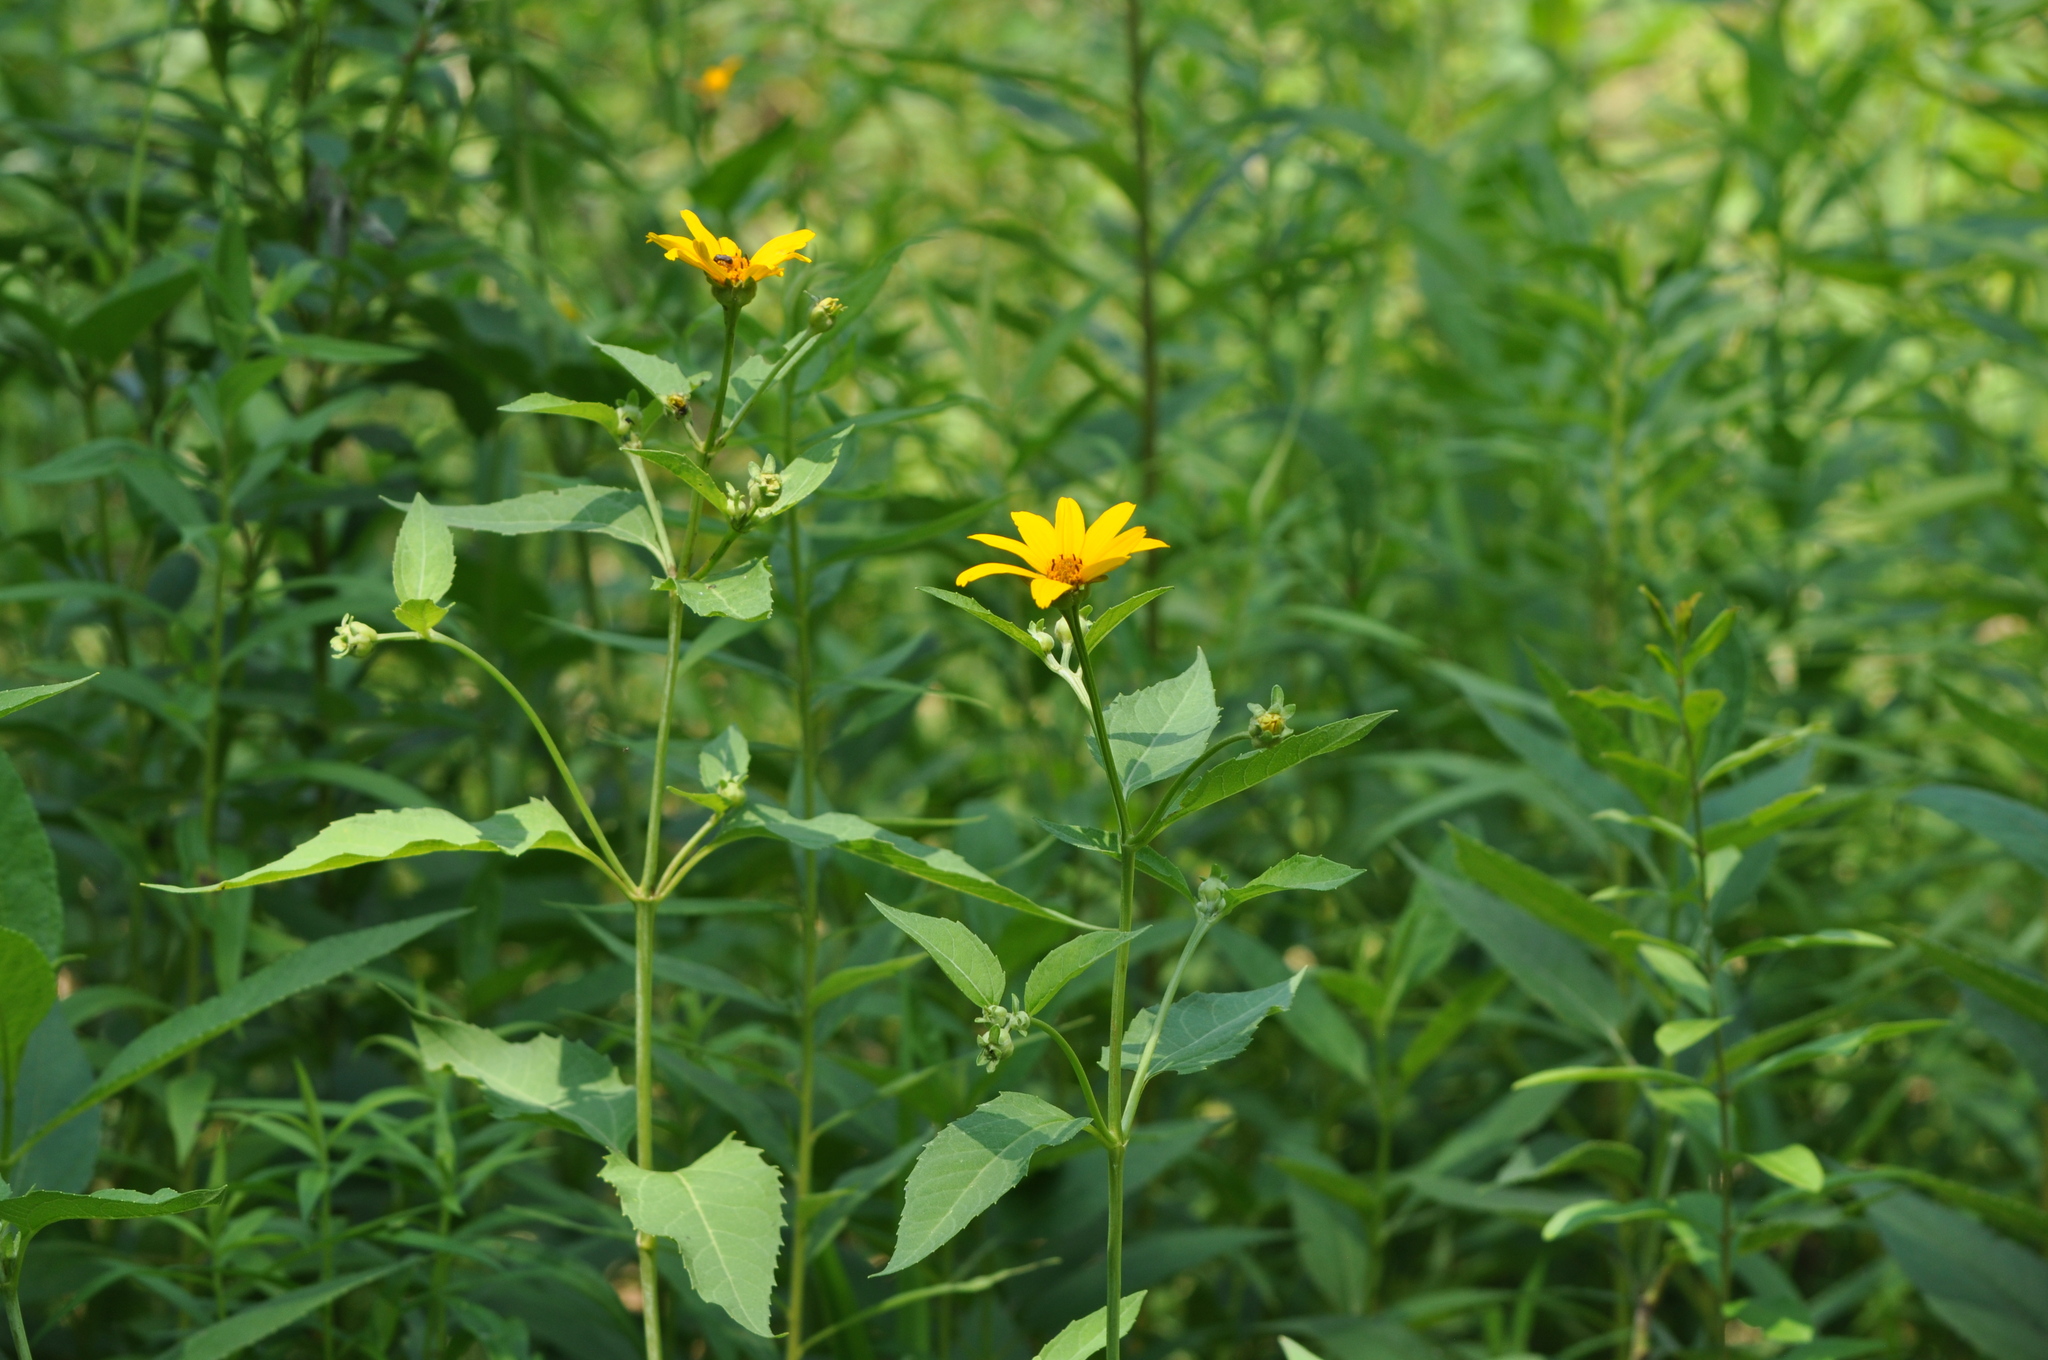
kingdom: Plantae
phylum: Tracheophyta
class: Magnoliopsida
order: Asterales
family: Asteraceae
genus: Heliopsis
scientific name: Heliopsis helianthoides
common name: False sunflower
